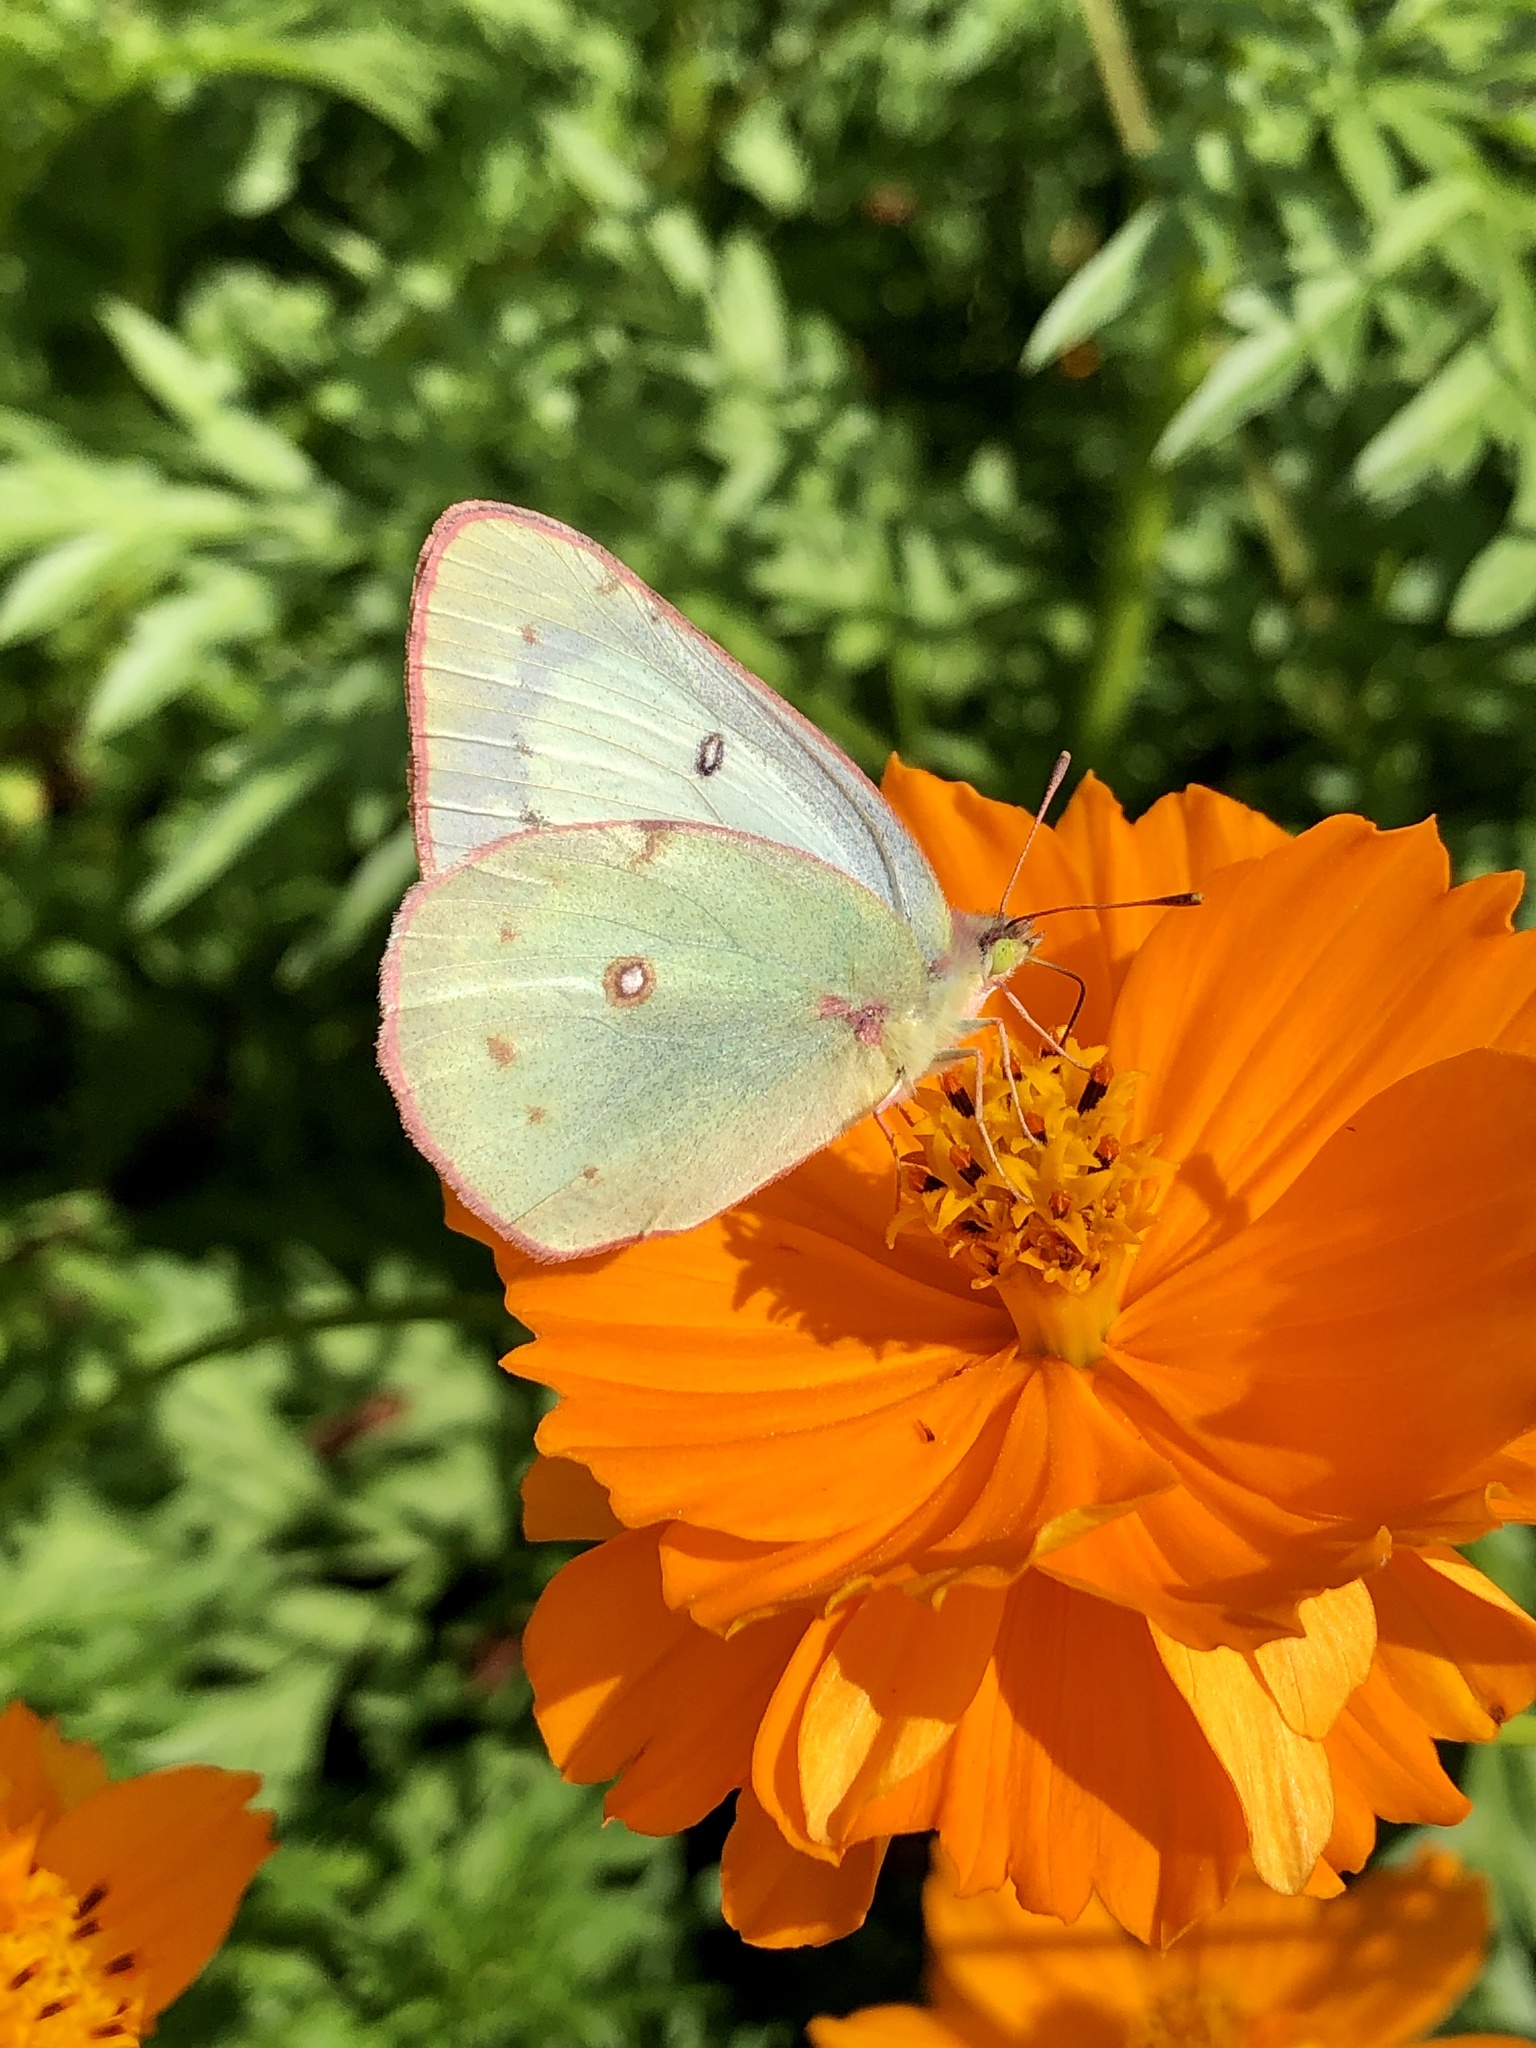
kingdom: Animalia
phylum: Arthropoda
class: Insecta
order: Lepidoptera
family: Pieridae
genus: Colias
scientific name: Colias philodice
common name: Clouded sulphur
